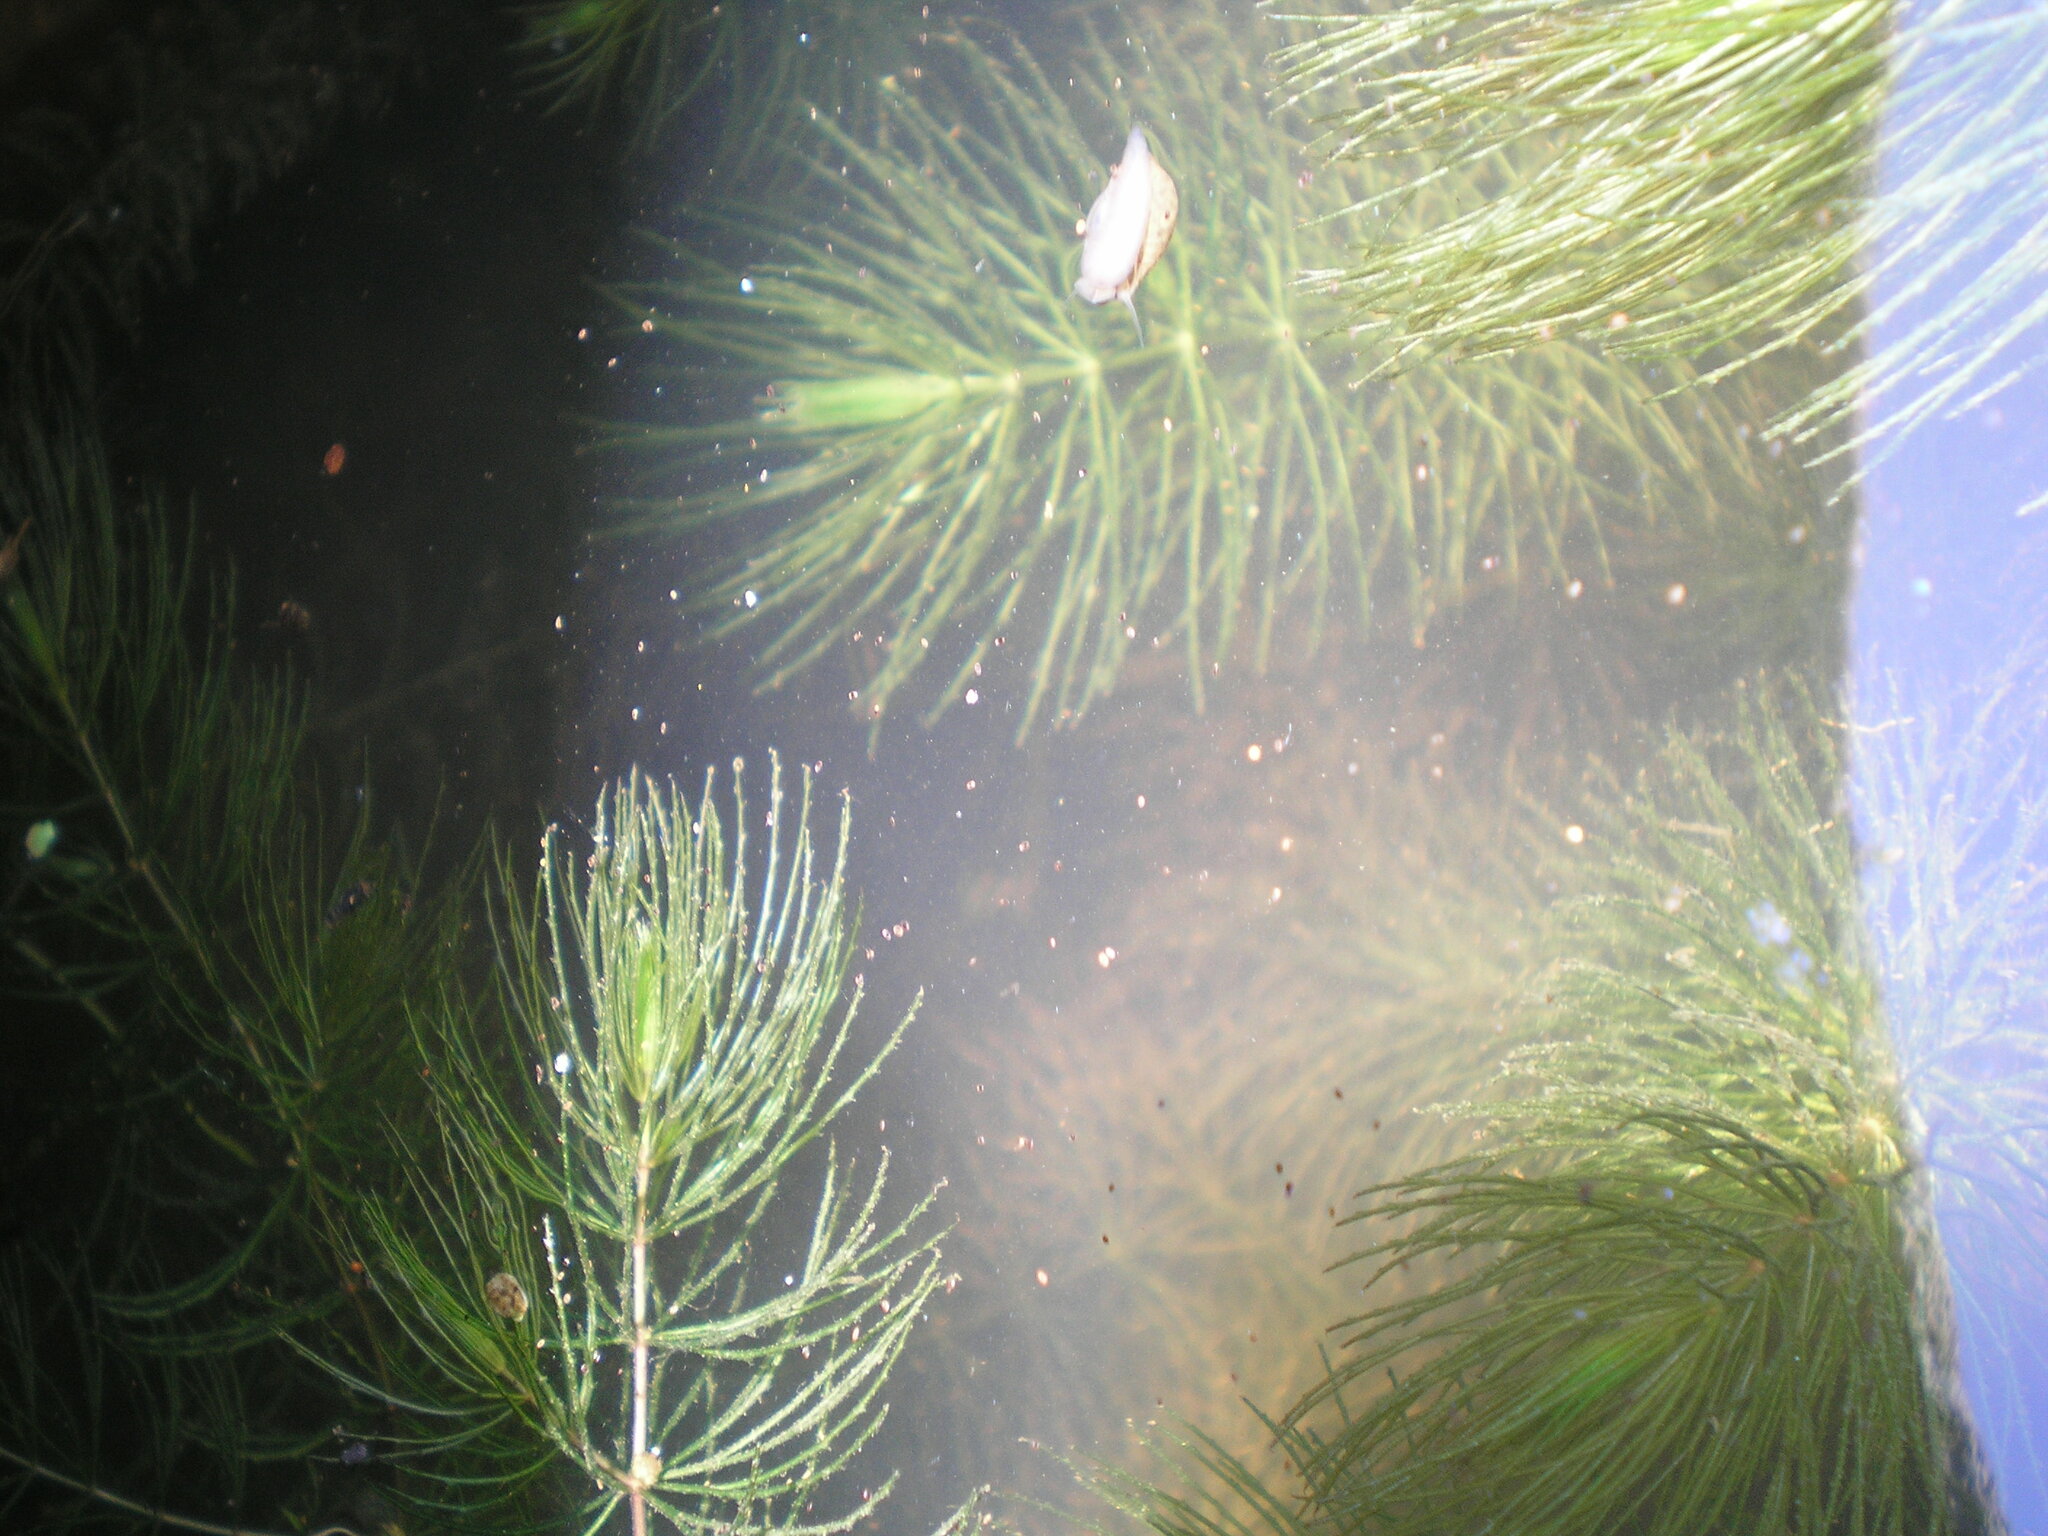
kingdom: Plantae
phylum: Tracheophyta
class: Magnoliopsida
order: Ceratophyllales
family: Ceratophyllaceae
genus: Ceratophyllum
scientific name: Ceratophyllum demersum
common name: Rigid hornwort
